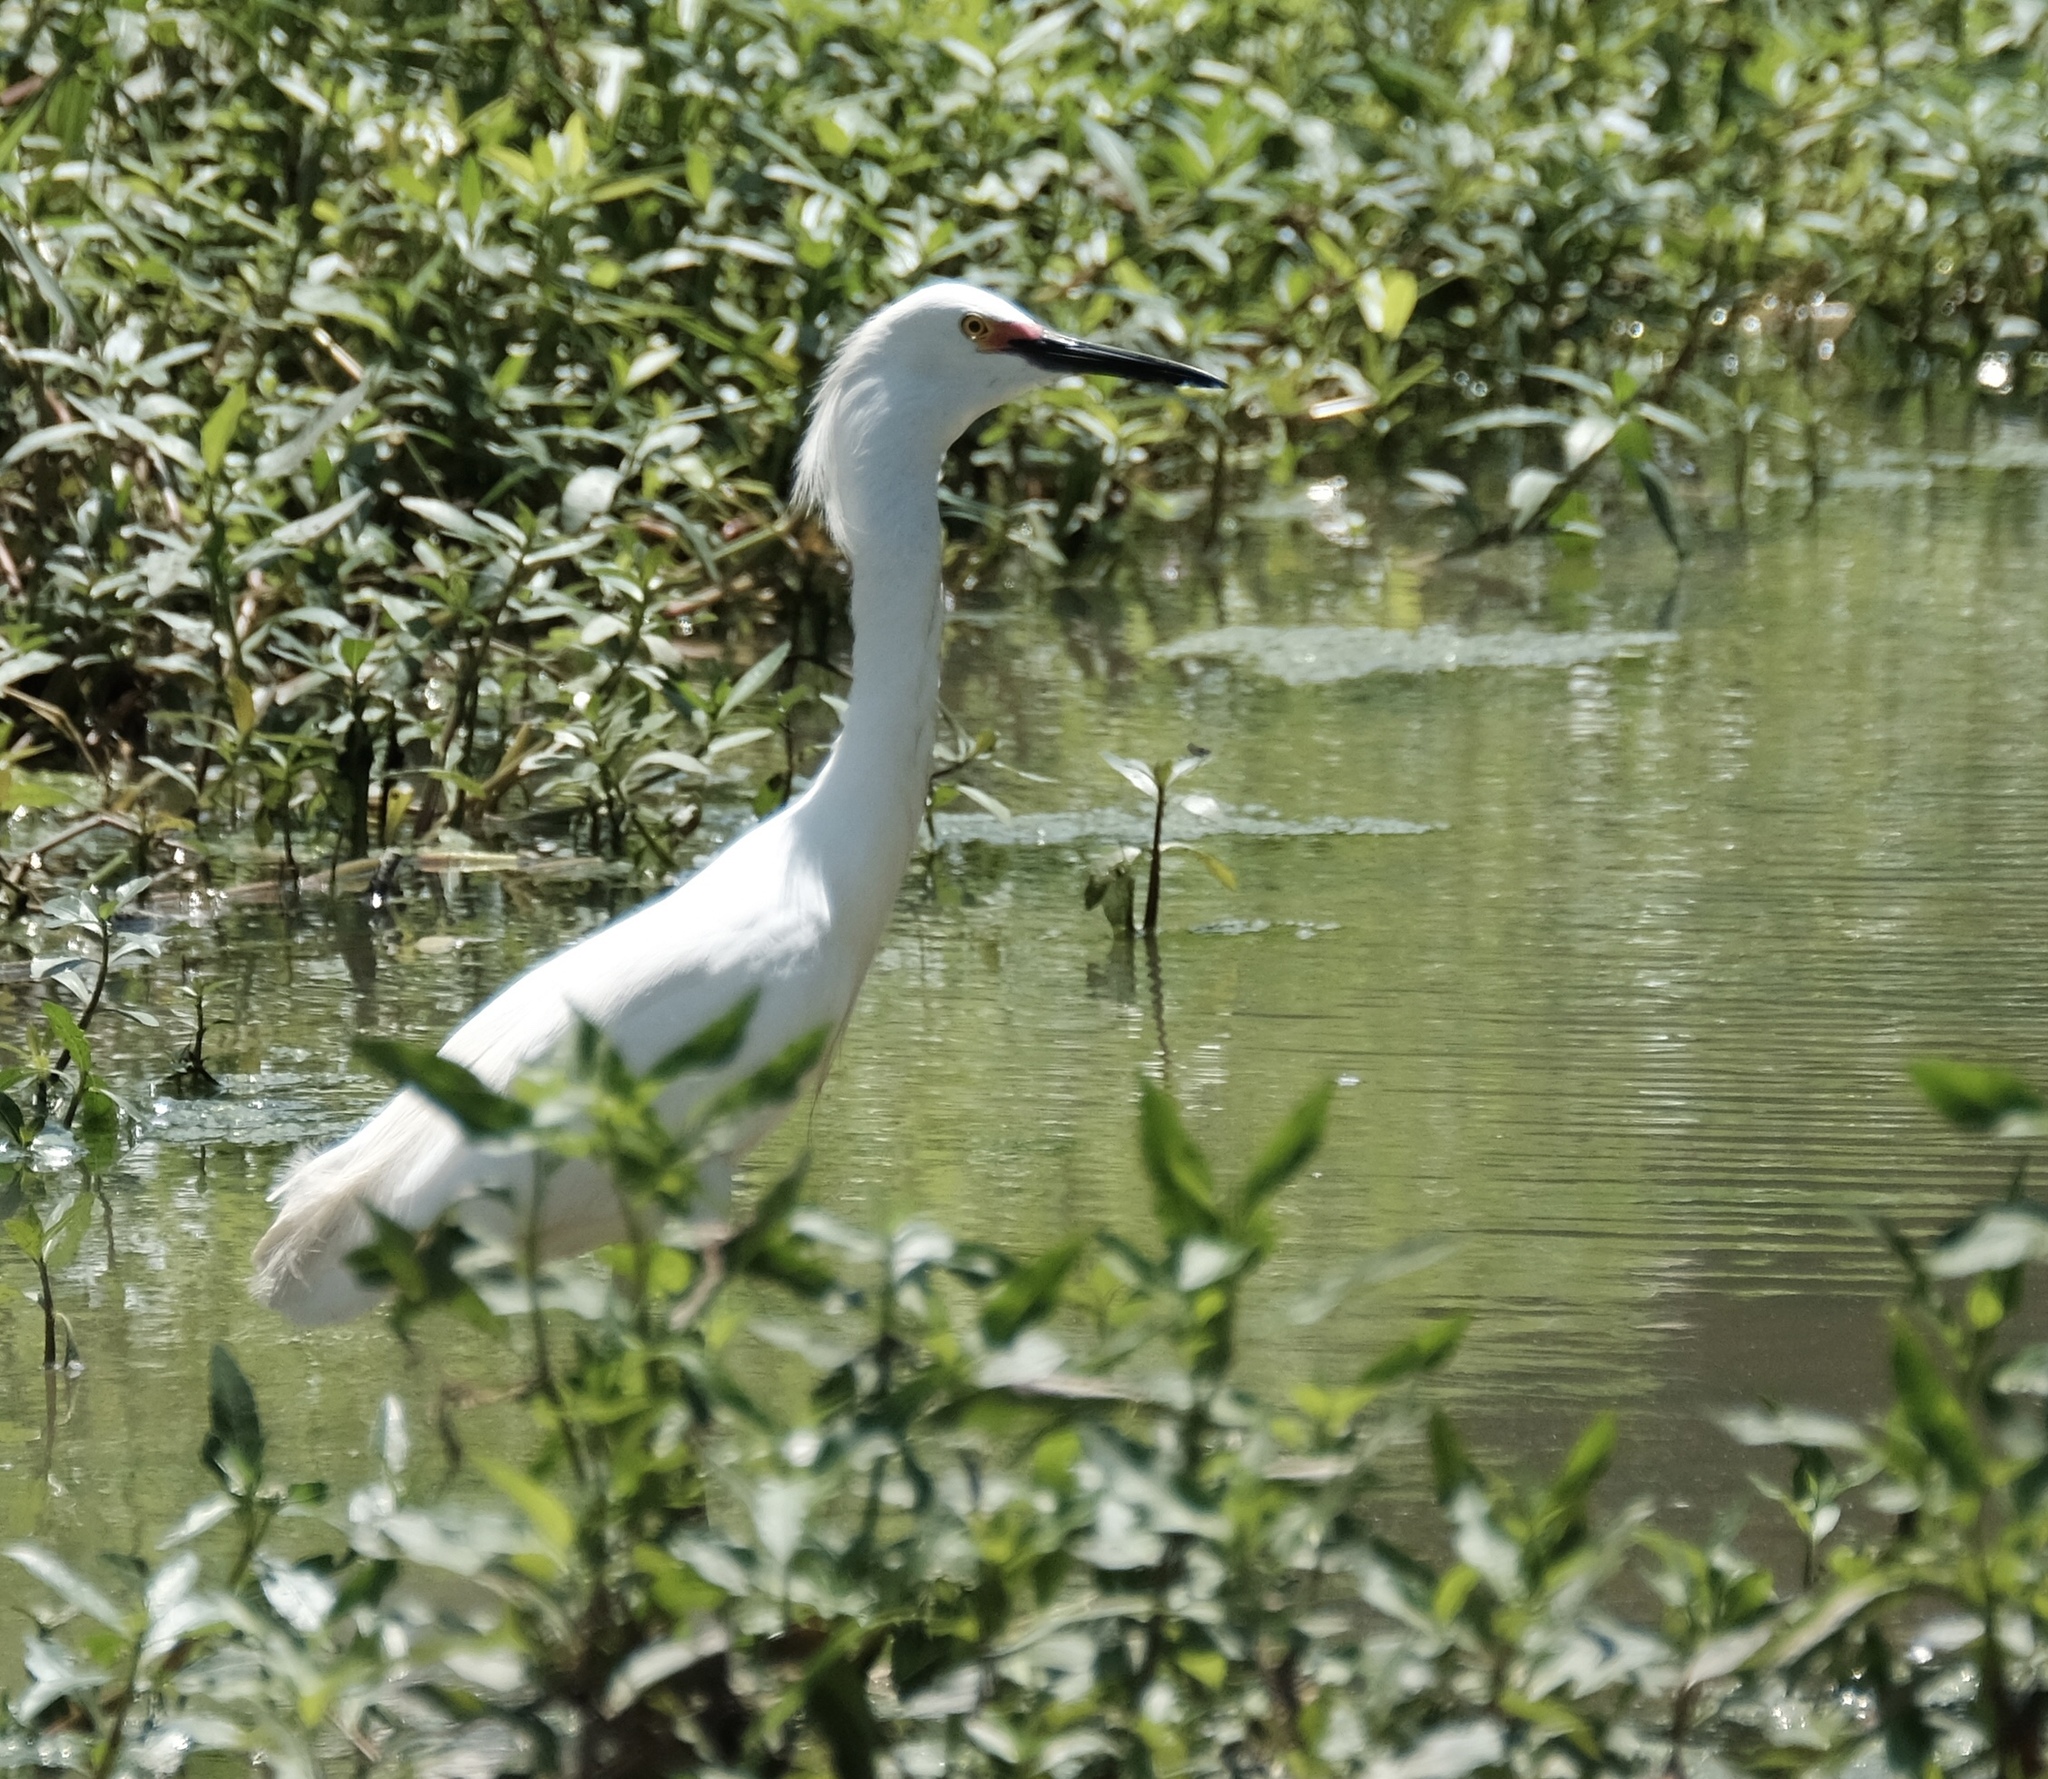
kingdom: Animalia
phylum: Chordata
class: Aves
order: Pelecaniformes
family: Ardeidae
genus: Egretta
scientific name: Egretta thula
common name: Snowy egret
